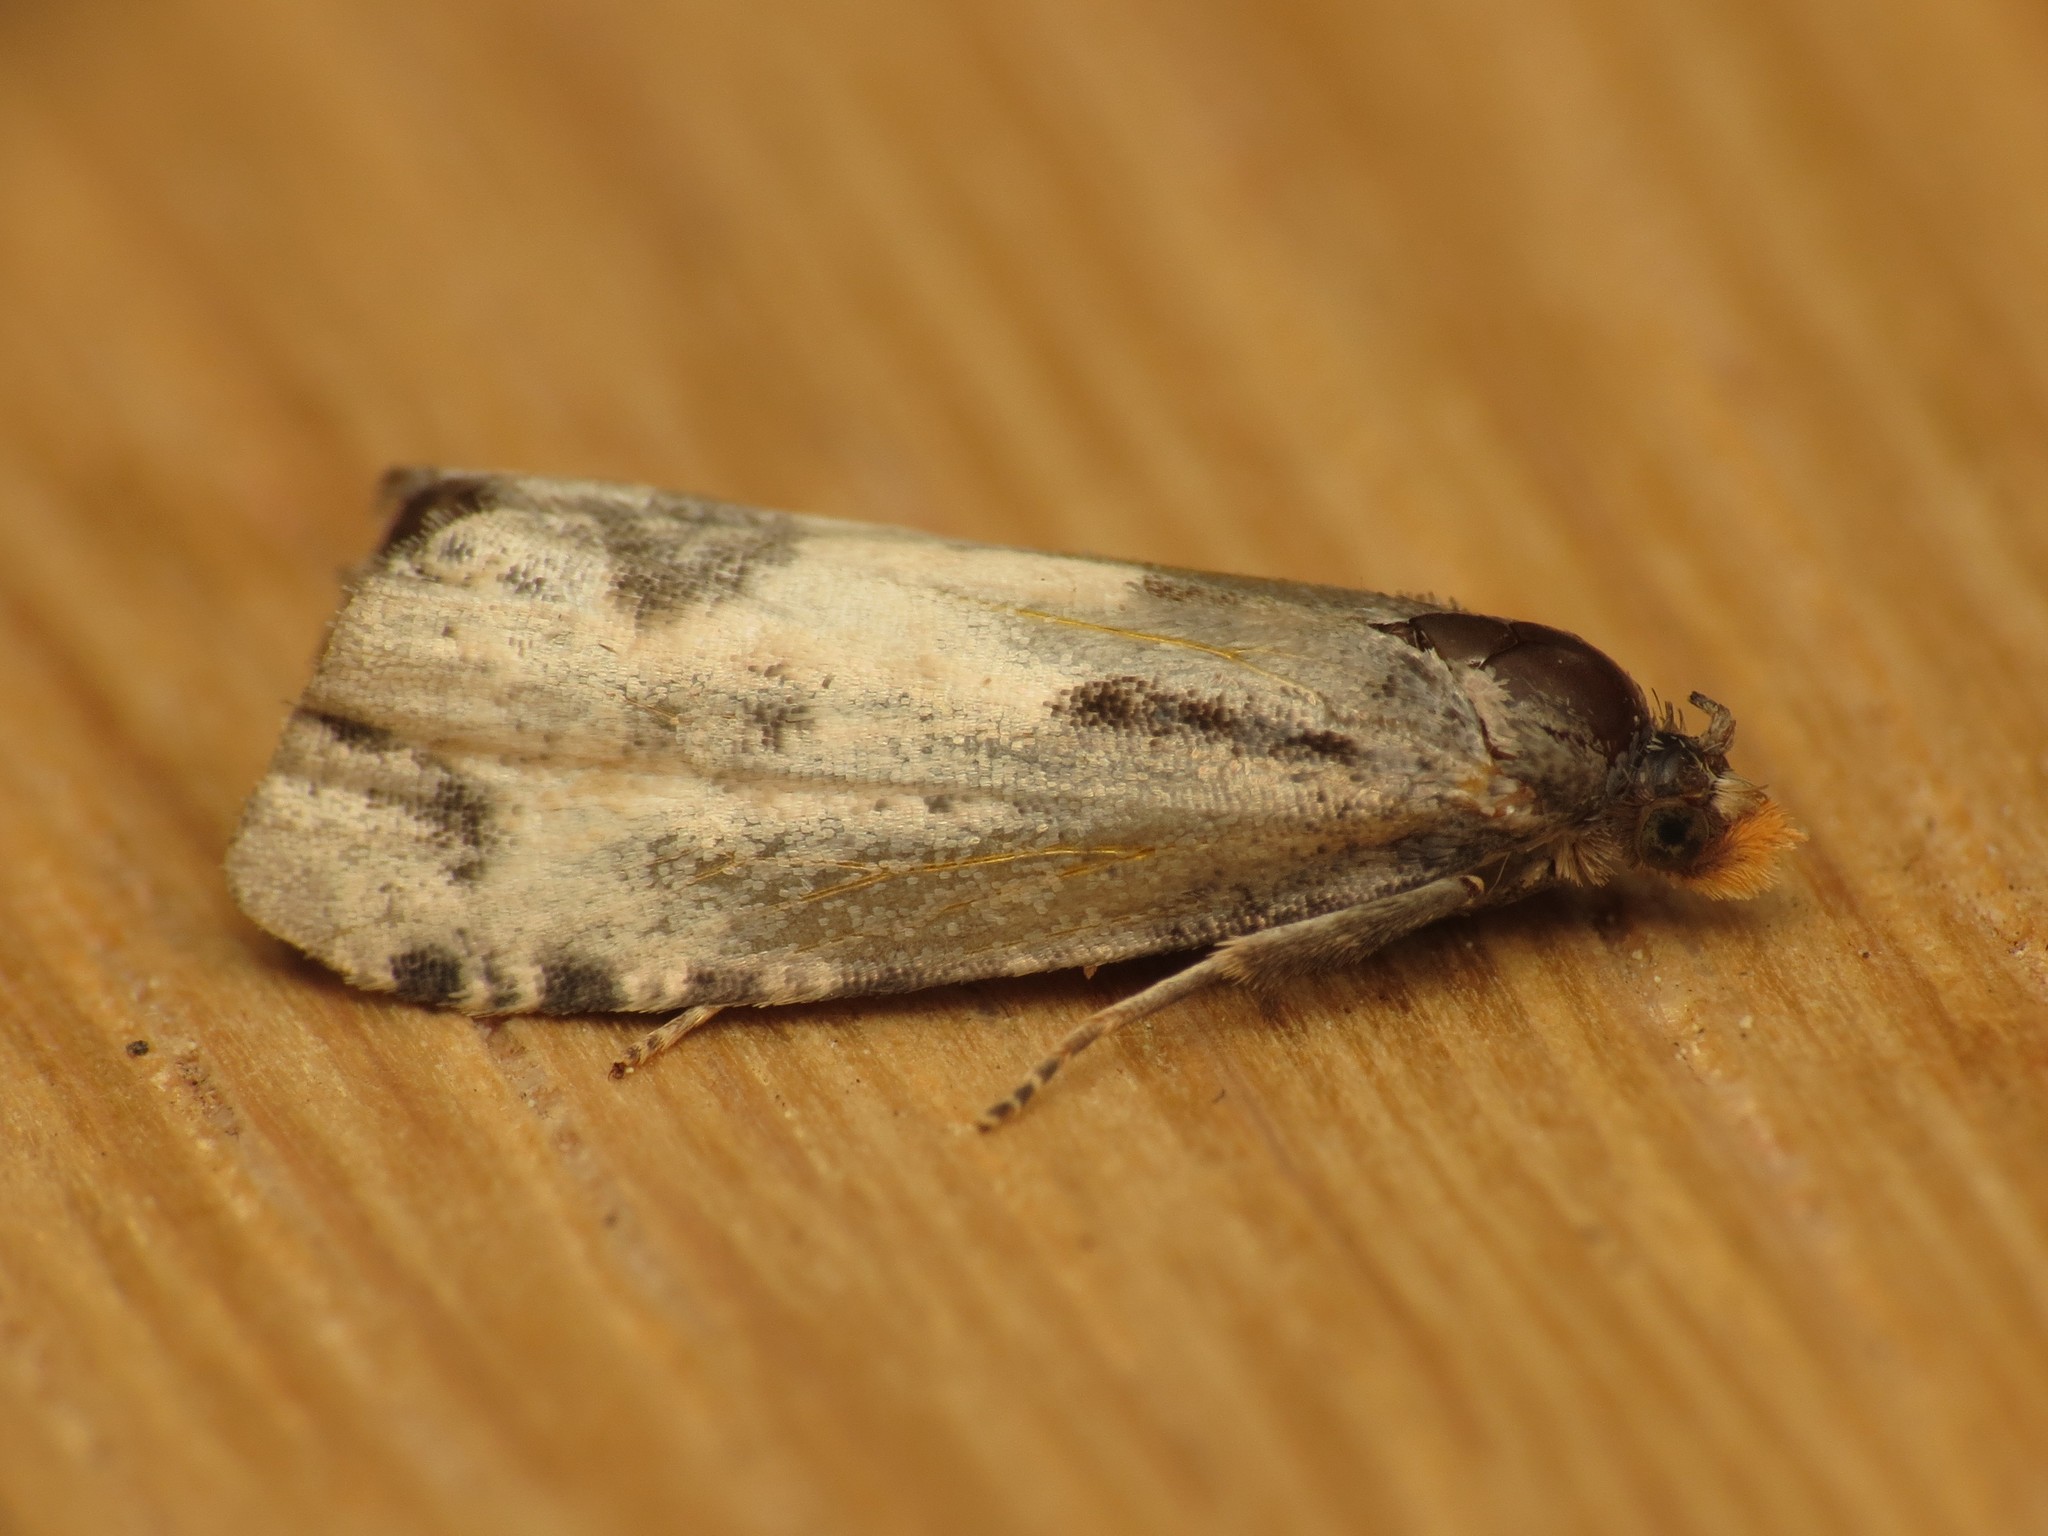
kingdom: Animalia
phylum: Arthropoda
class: Insecta
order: Lepidoptera
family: Tortricidae
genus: Notocelia
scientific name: Notocelia cynosbatella
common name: Yellow-faced bell moth
